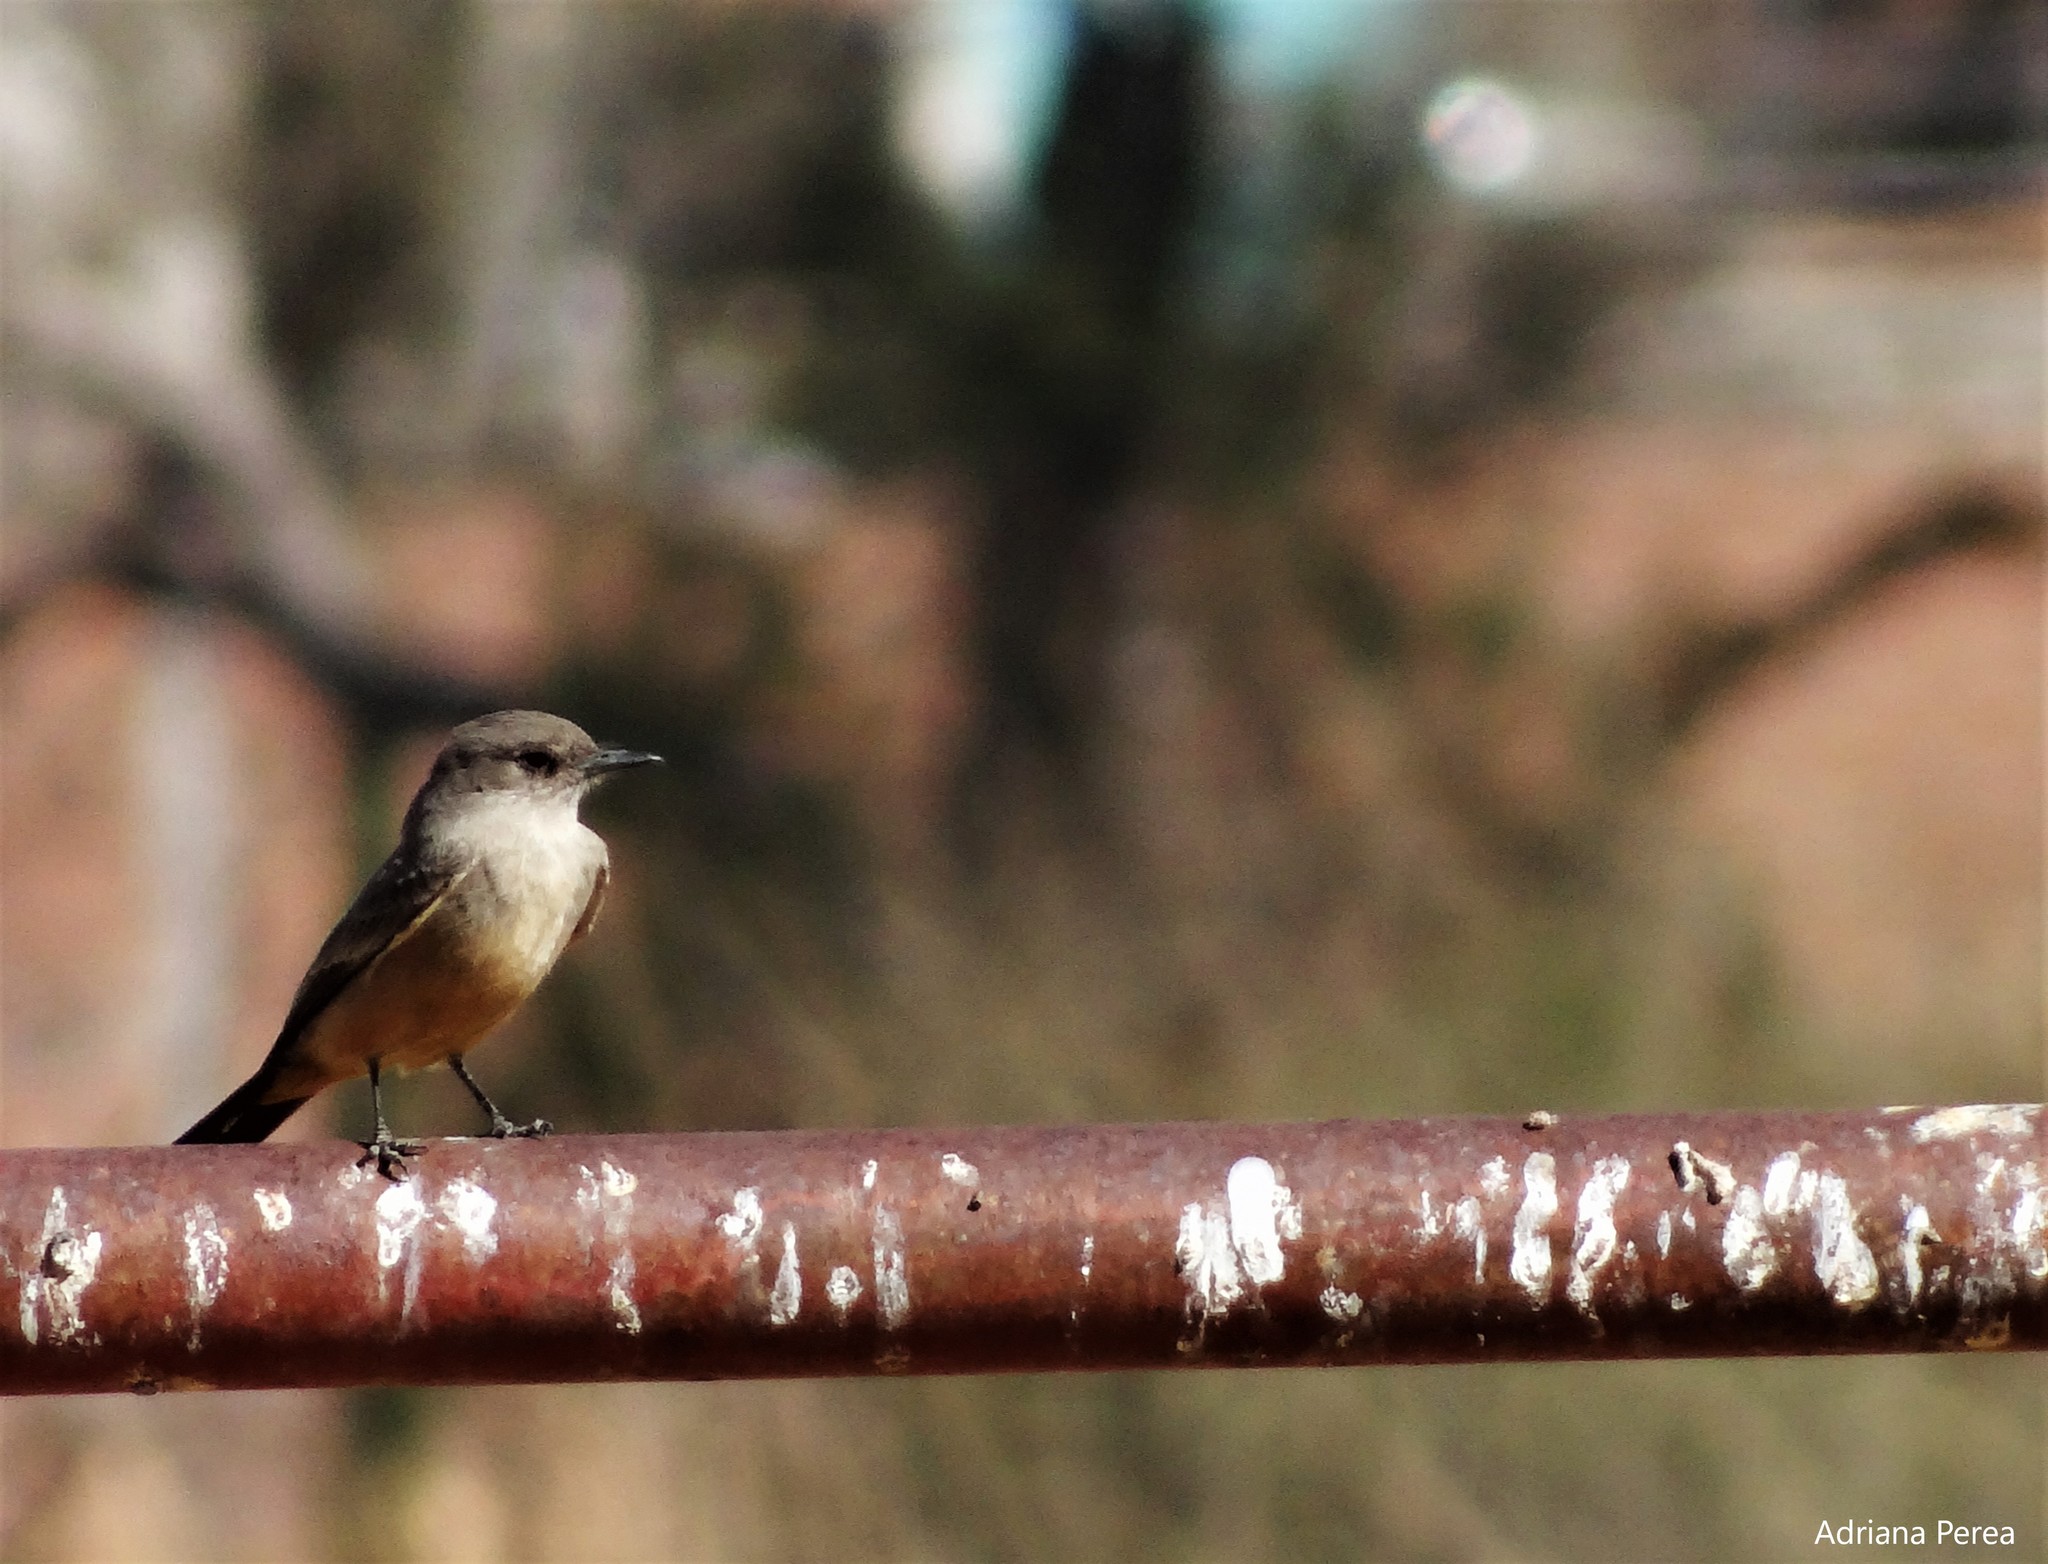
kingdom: Animalia
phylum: Chordata
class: Aves
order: Passeriformes
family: Tyrannidae
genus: Sayornis
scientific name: Sayornis saya
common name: Say's phoebe
